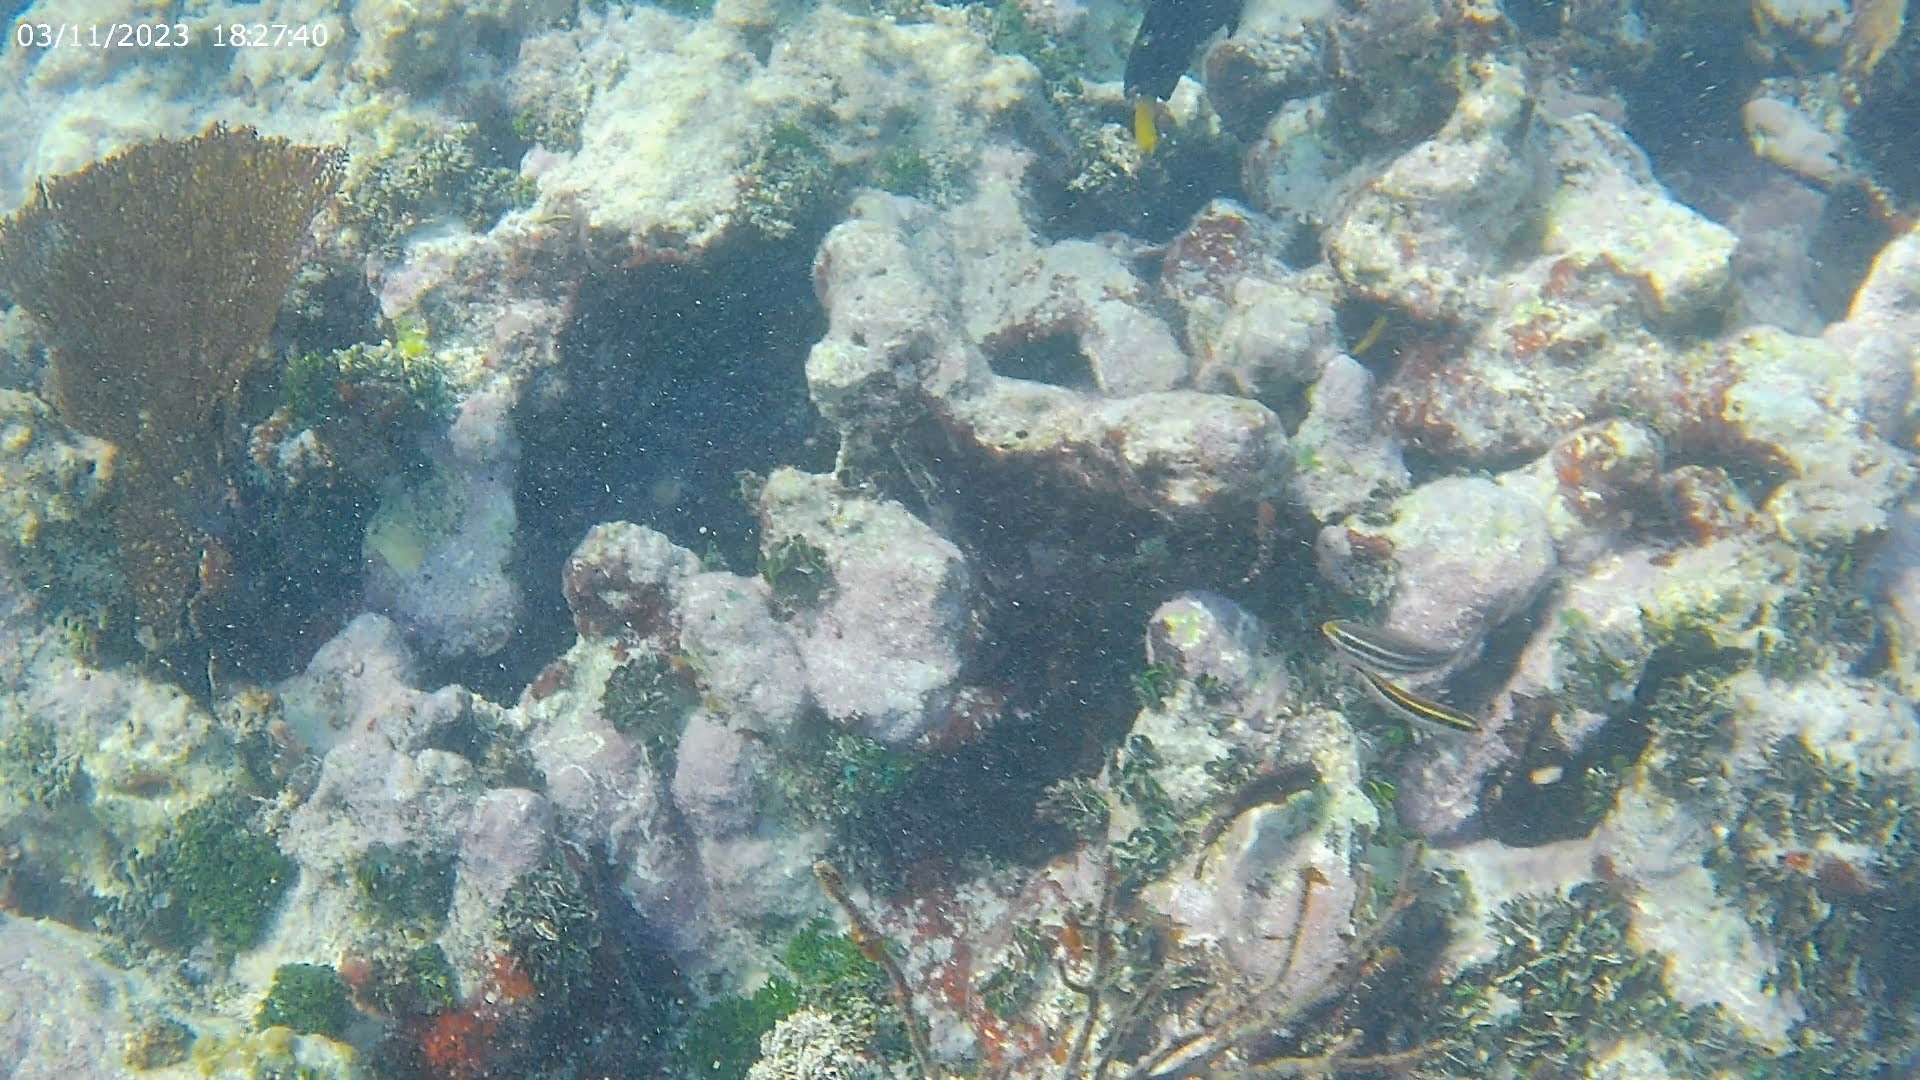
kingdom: Animalia
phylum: Chordata
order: Perciformes
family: Scaridae
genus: Scarus
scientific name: Scarus iseri
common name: Striped parrotfish
